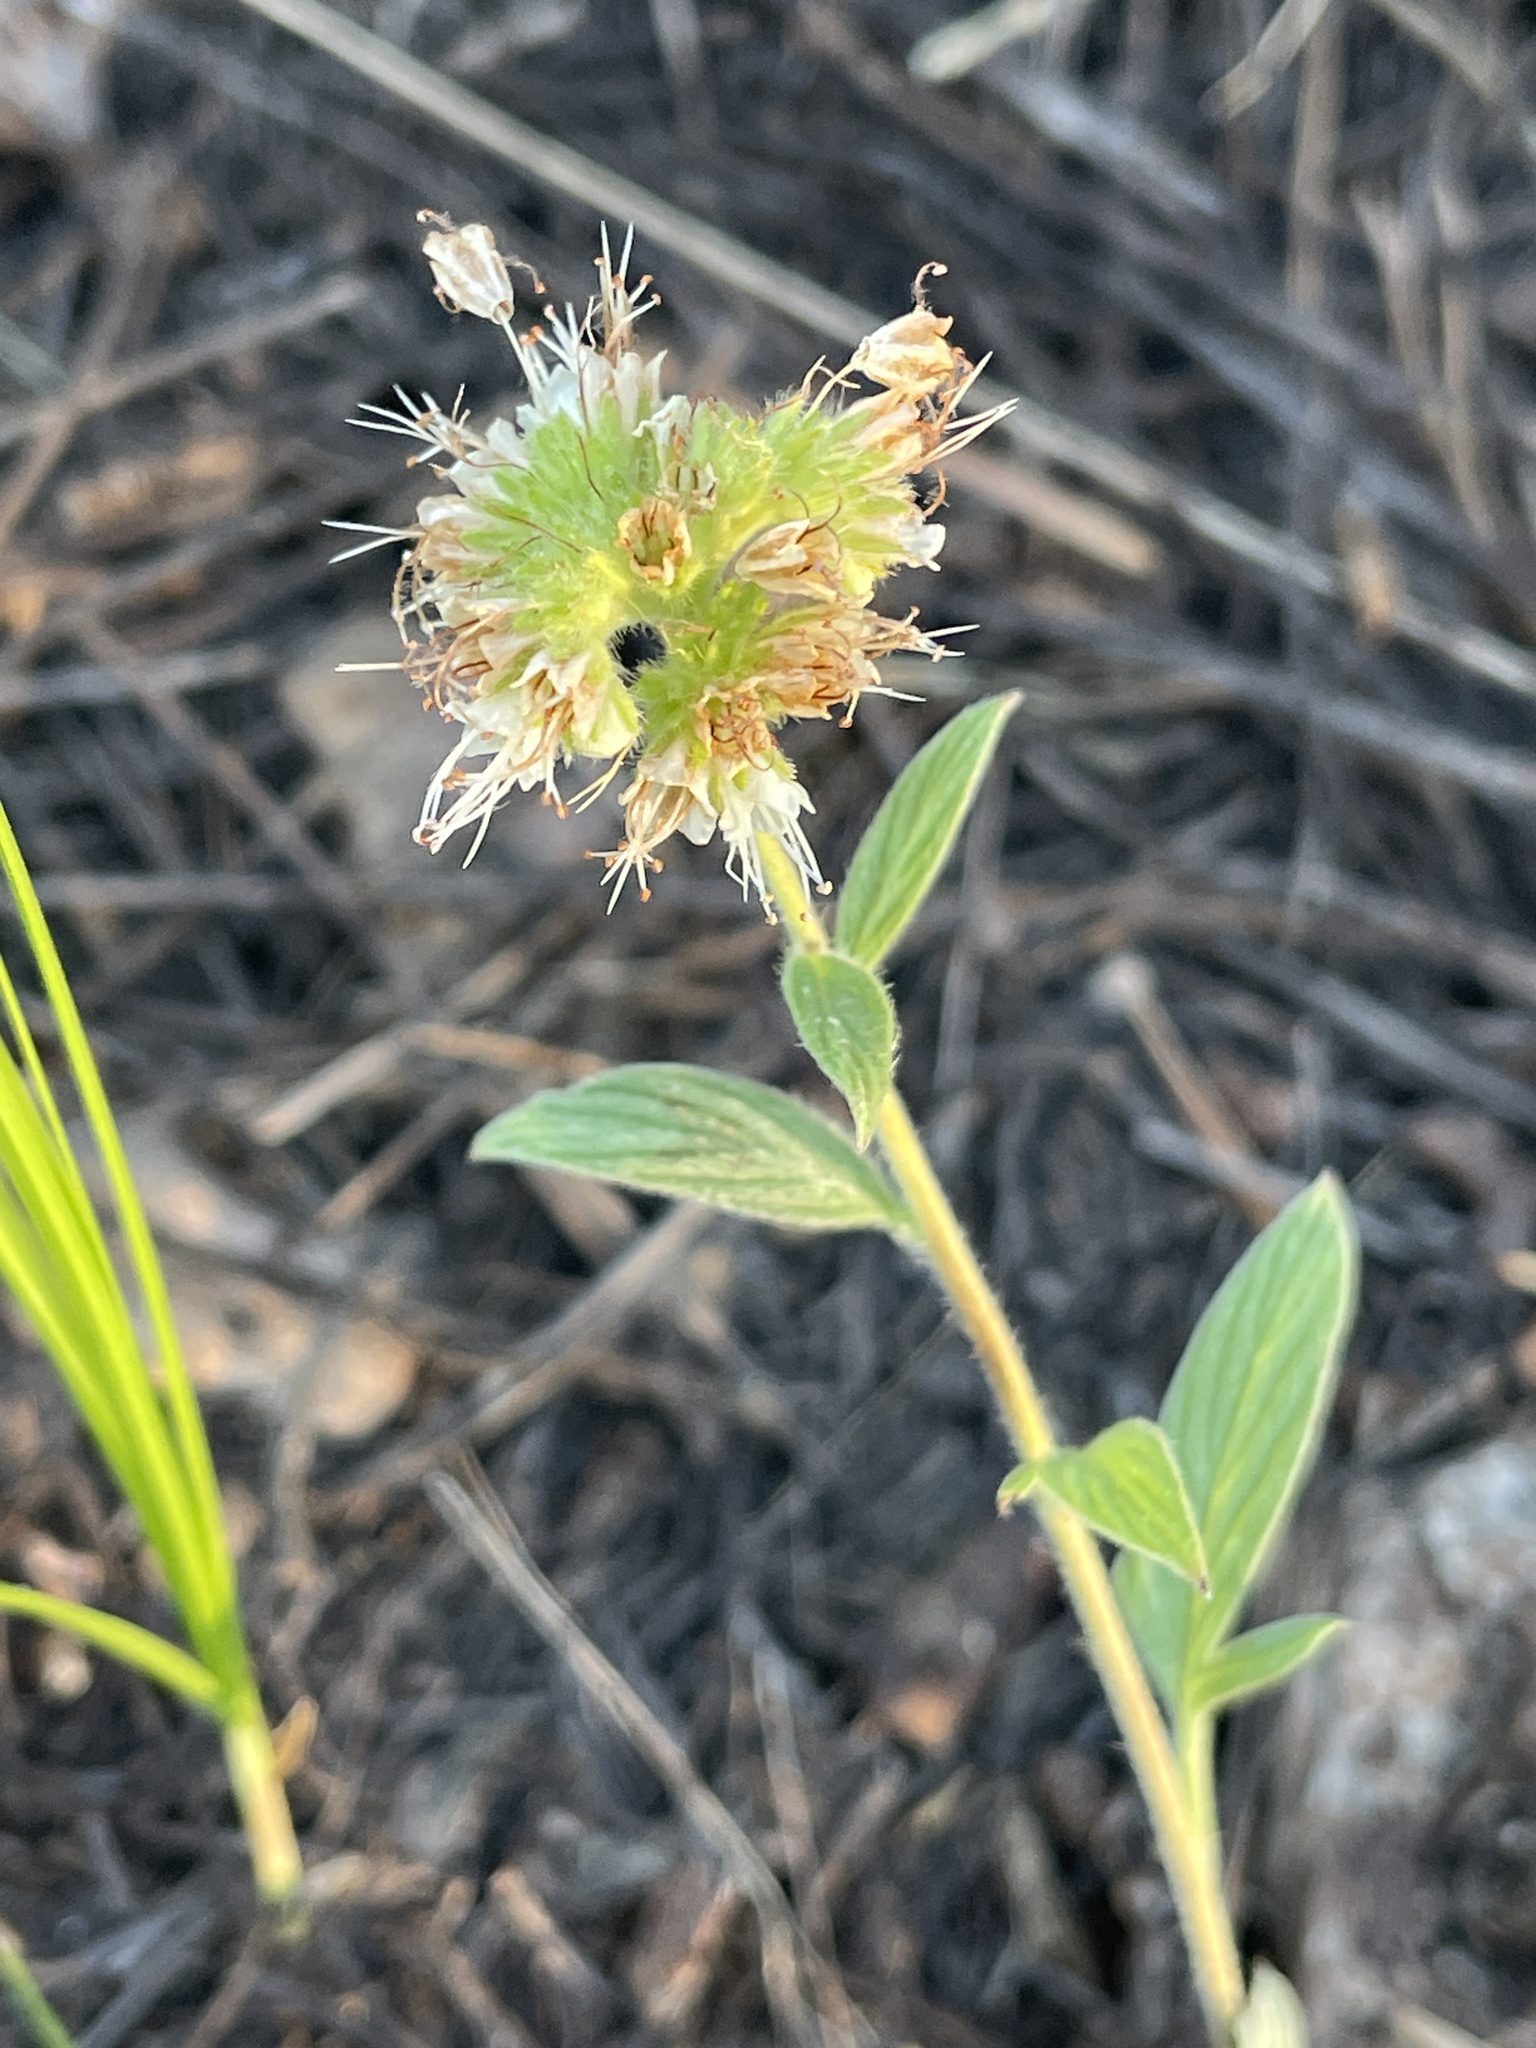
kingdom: Plantae
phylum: Tracheophyta
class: Magnoliopsida
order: Boraginales
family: Hydrophyllaceae
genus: Phacelia
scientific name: Phacelia heterophylla
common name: Variable-leaved phacelia
